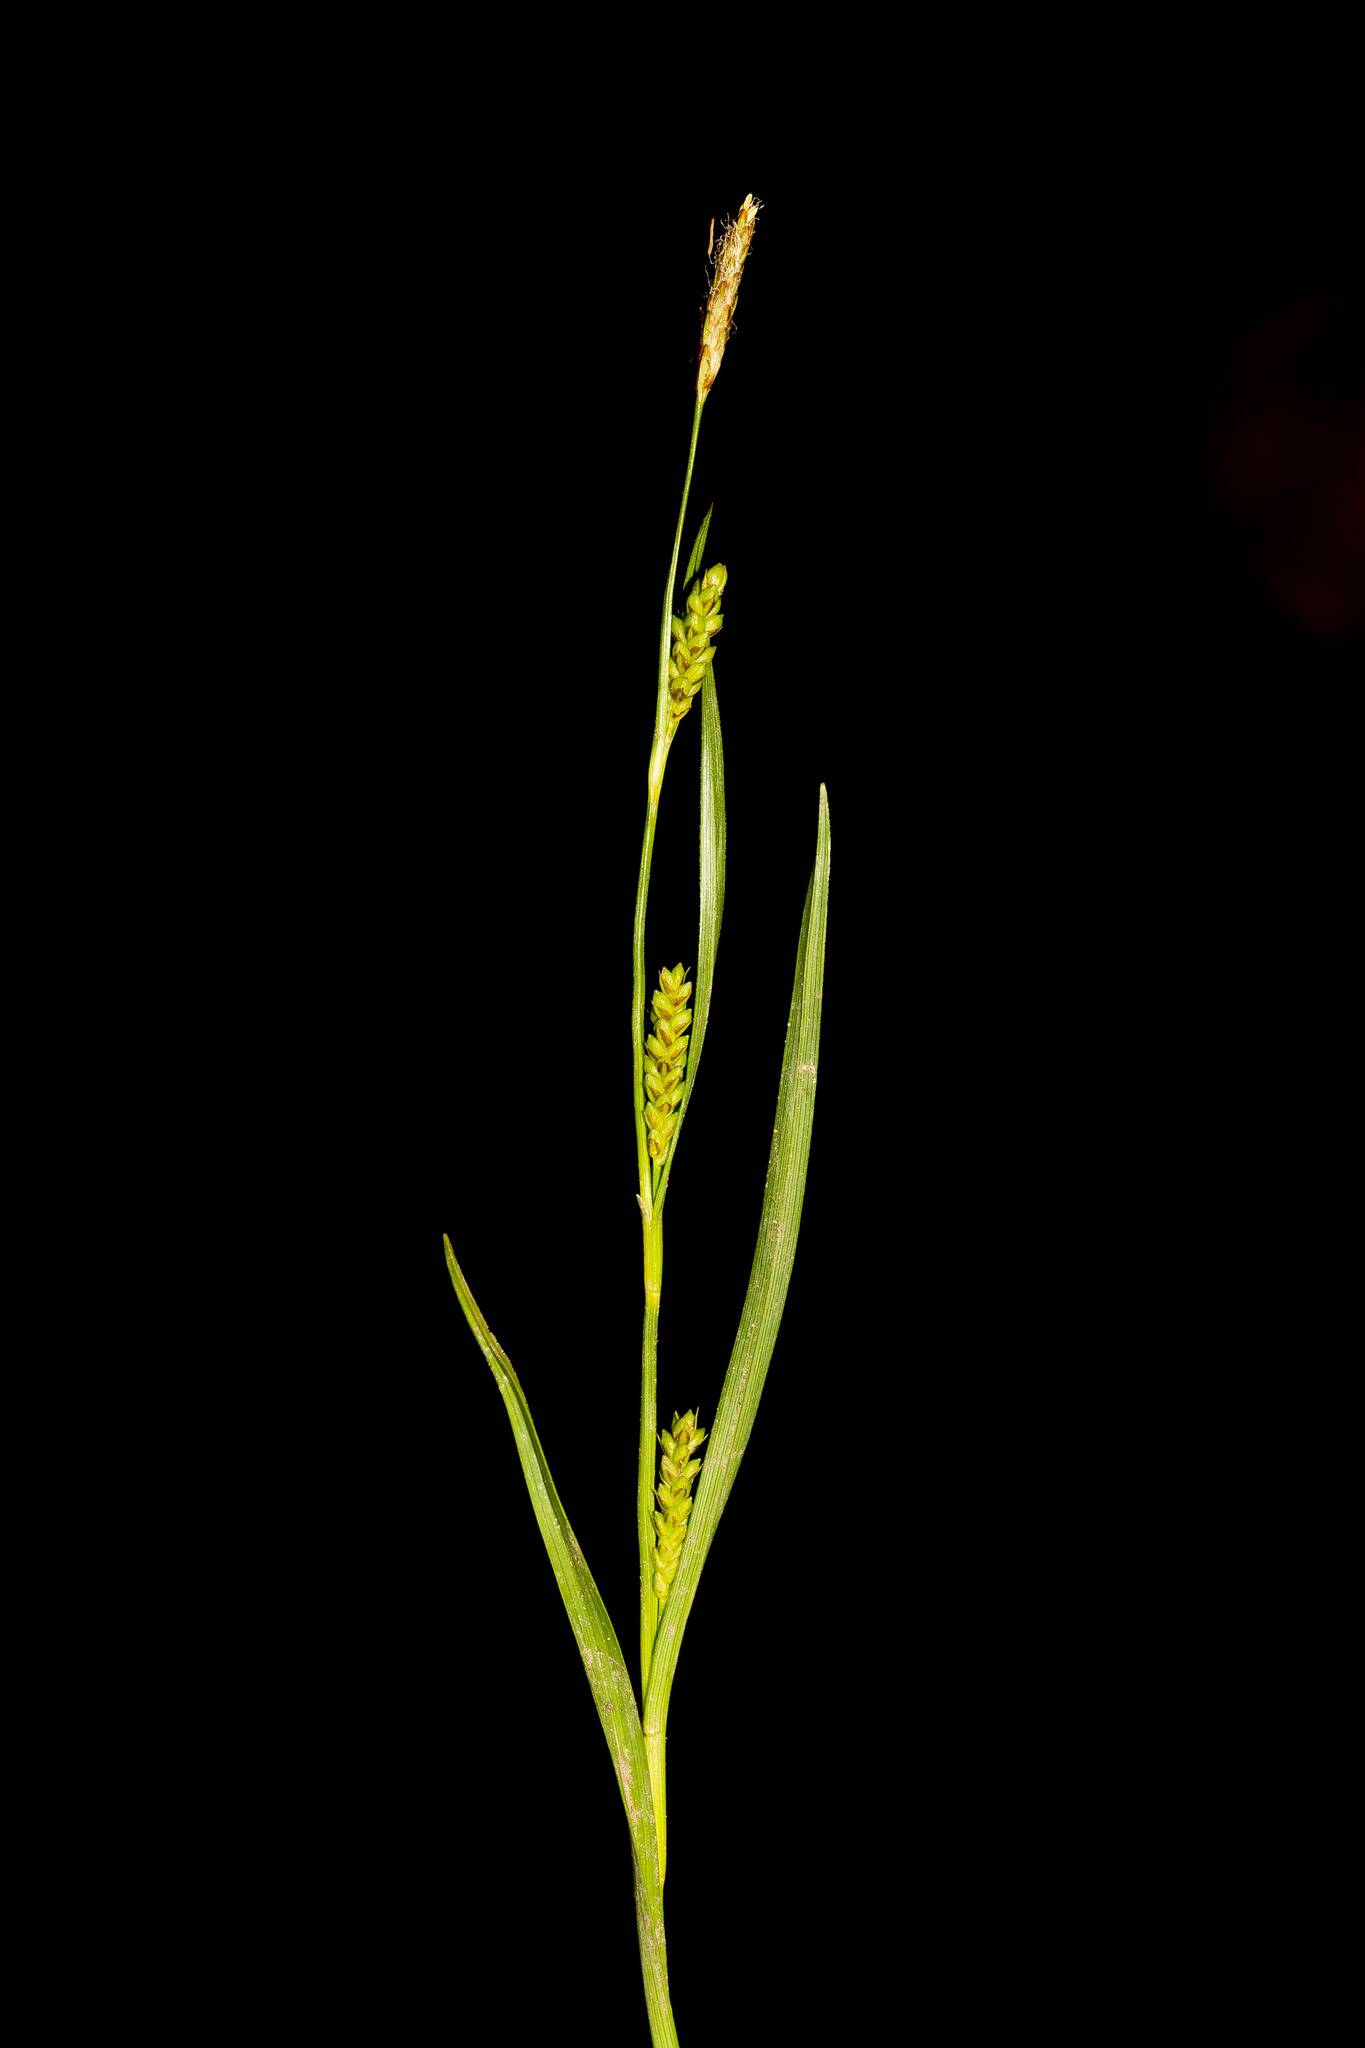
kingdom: Plantae
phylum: Tracheophyta
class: Liliopsida
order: Poales
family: Cyperaceae
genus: Carex
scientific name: Carex crawei
